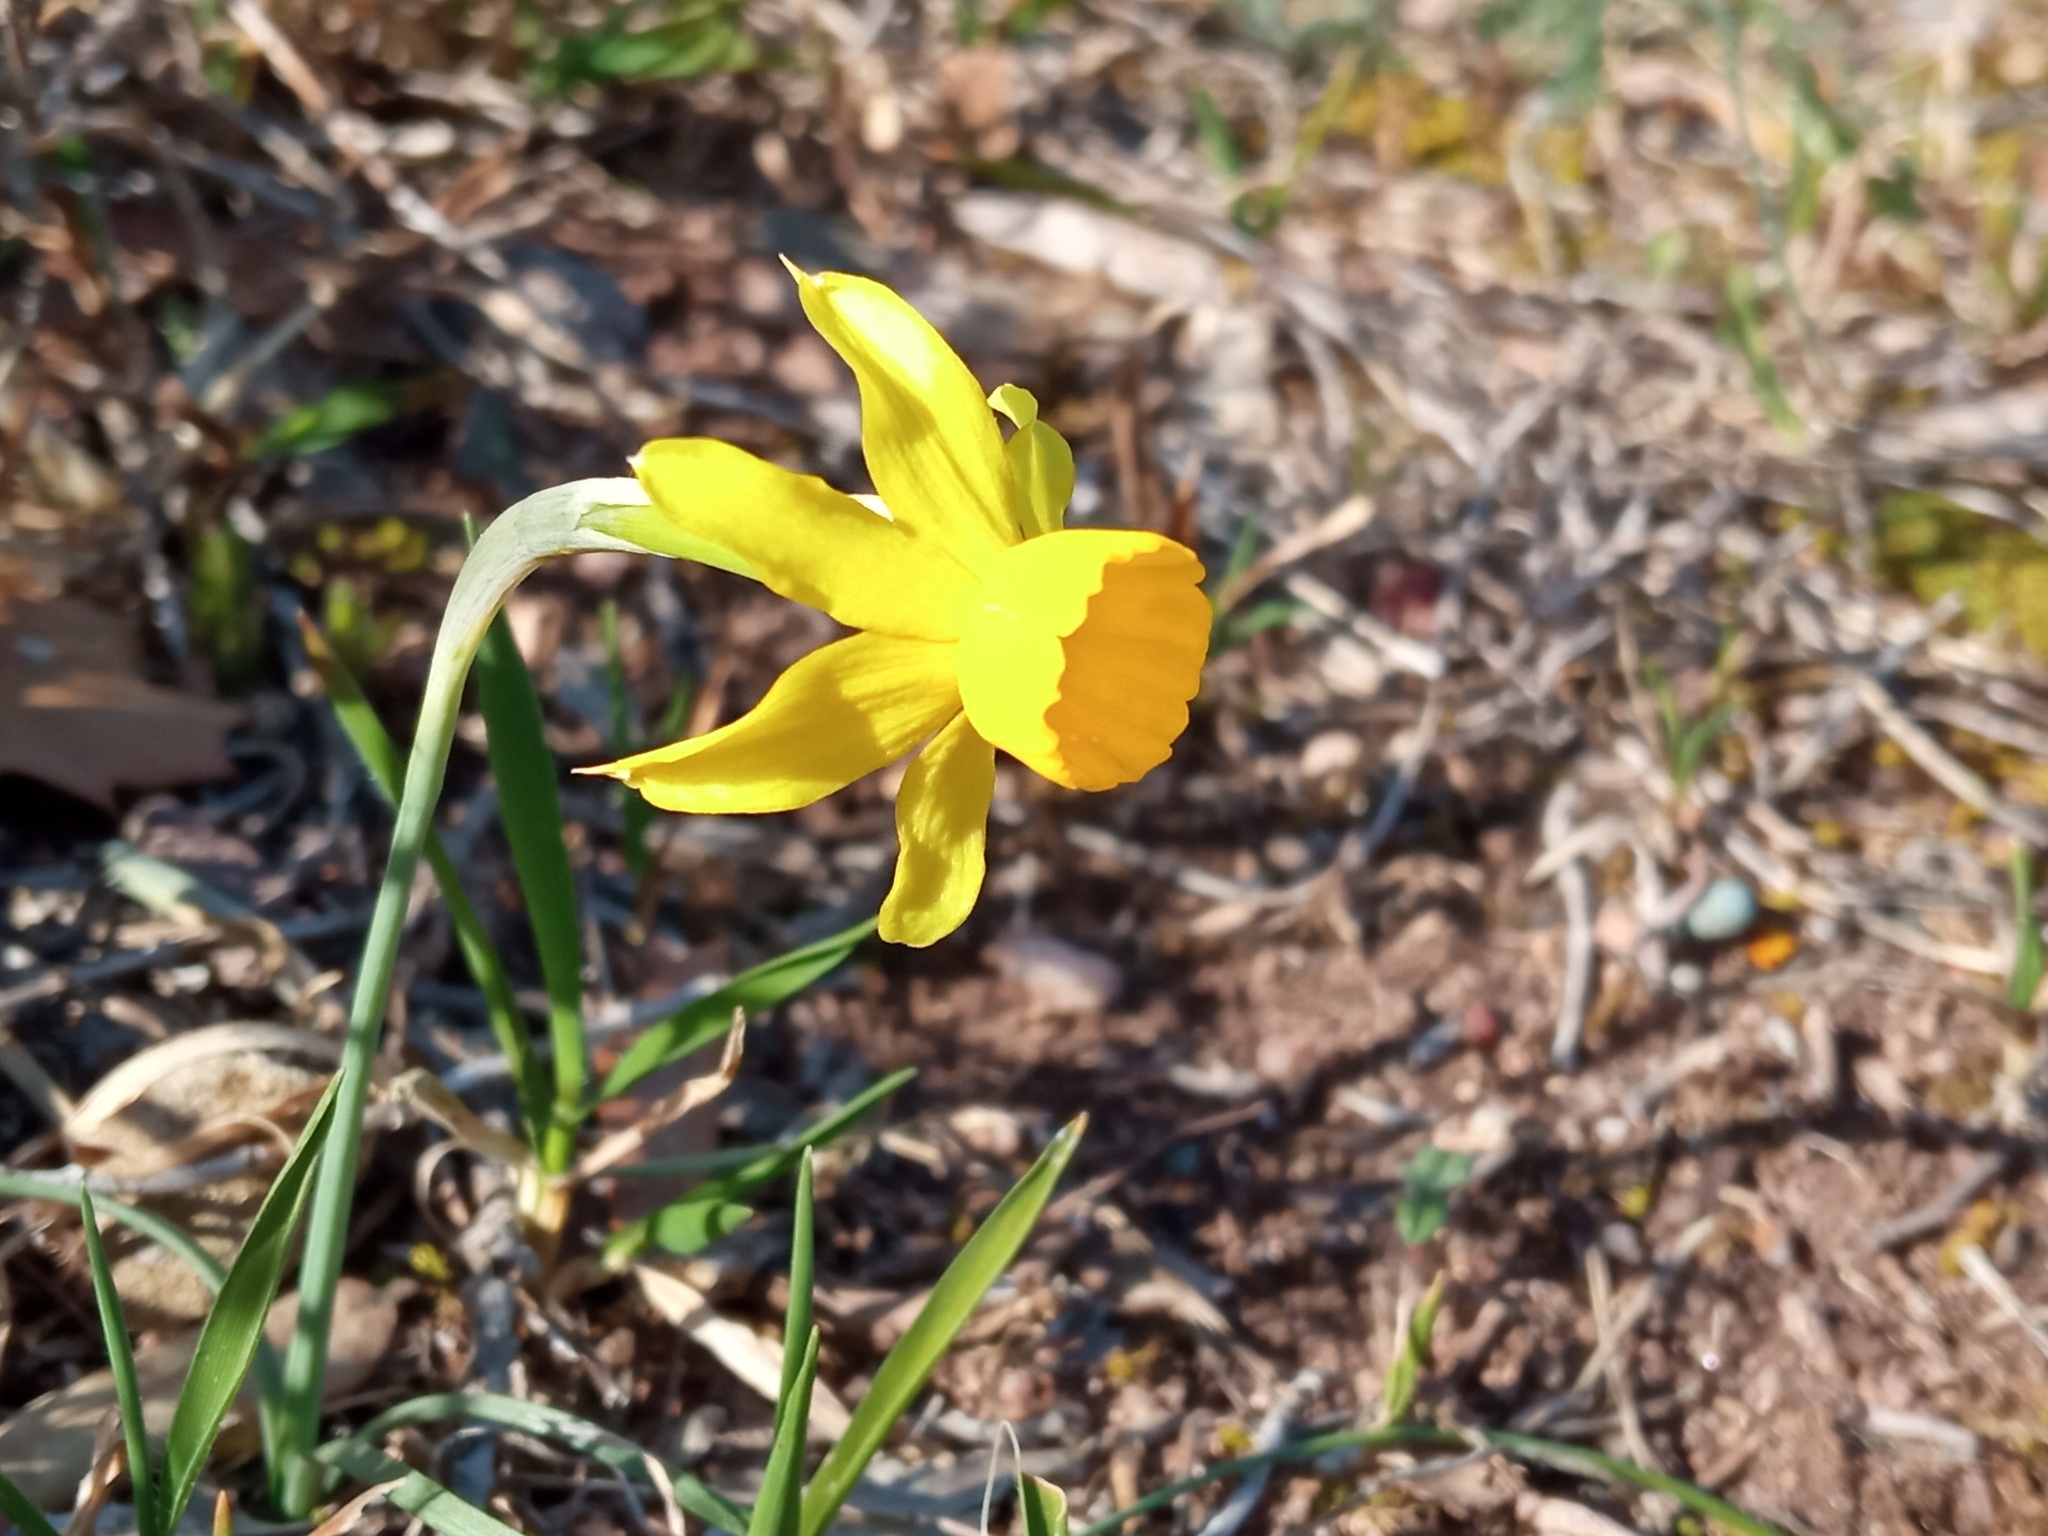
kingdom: Plantae
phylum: Tracheophyta
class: Liliopsida
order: Asparagales
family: Amaryllidaceae
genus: Narcissus
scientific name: Narcissus assoanus
